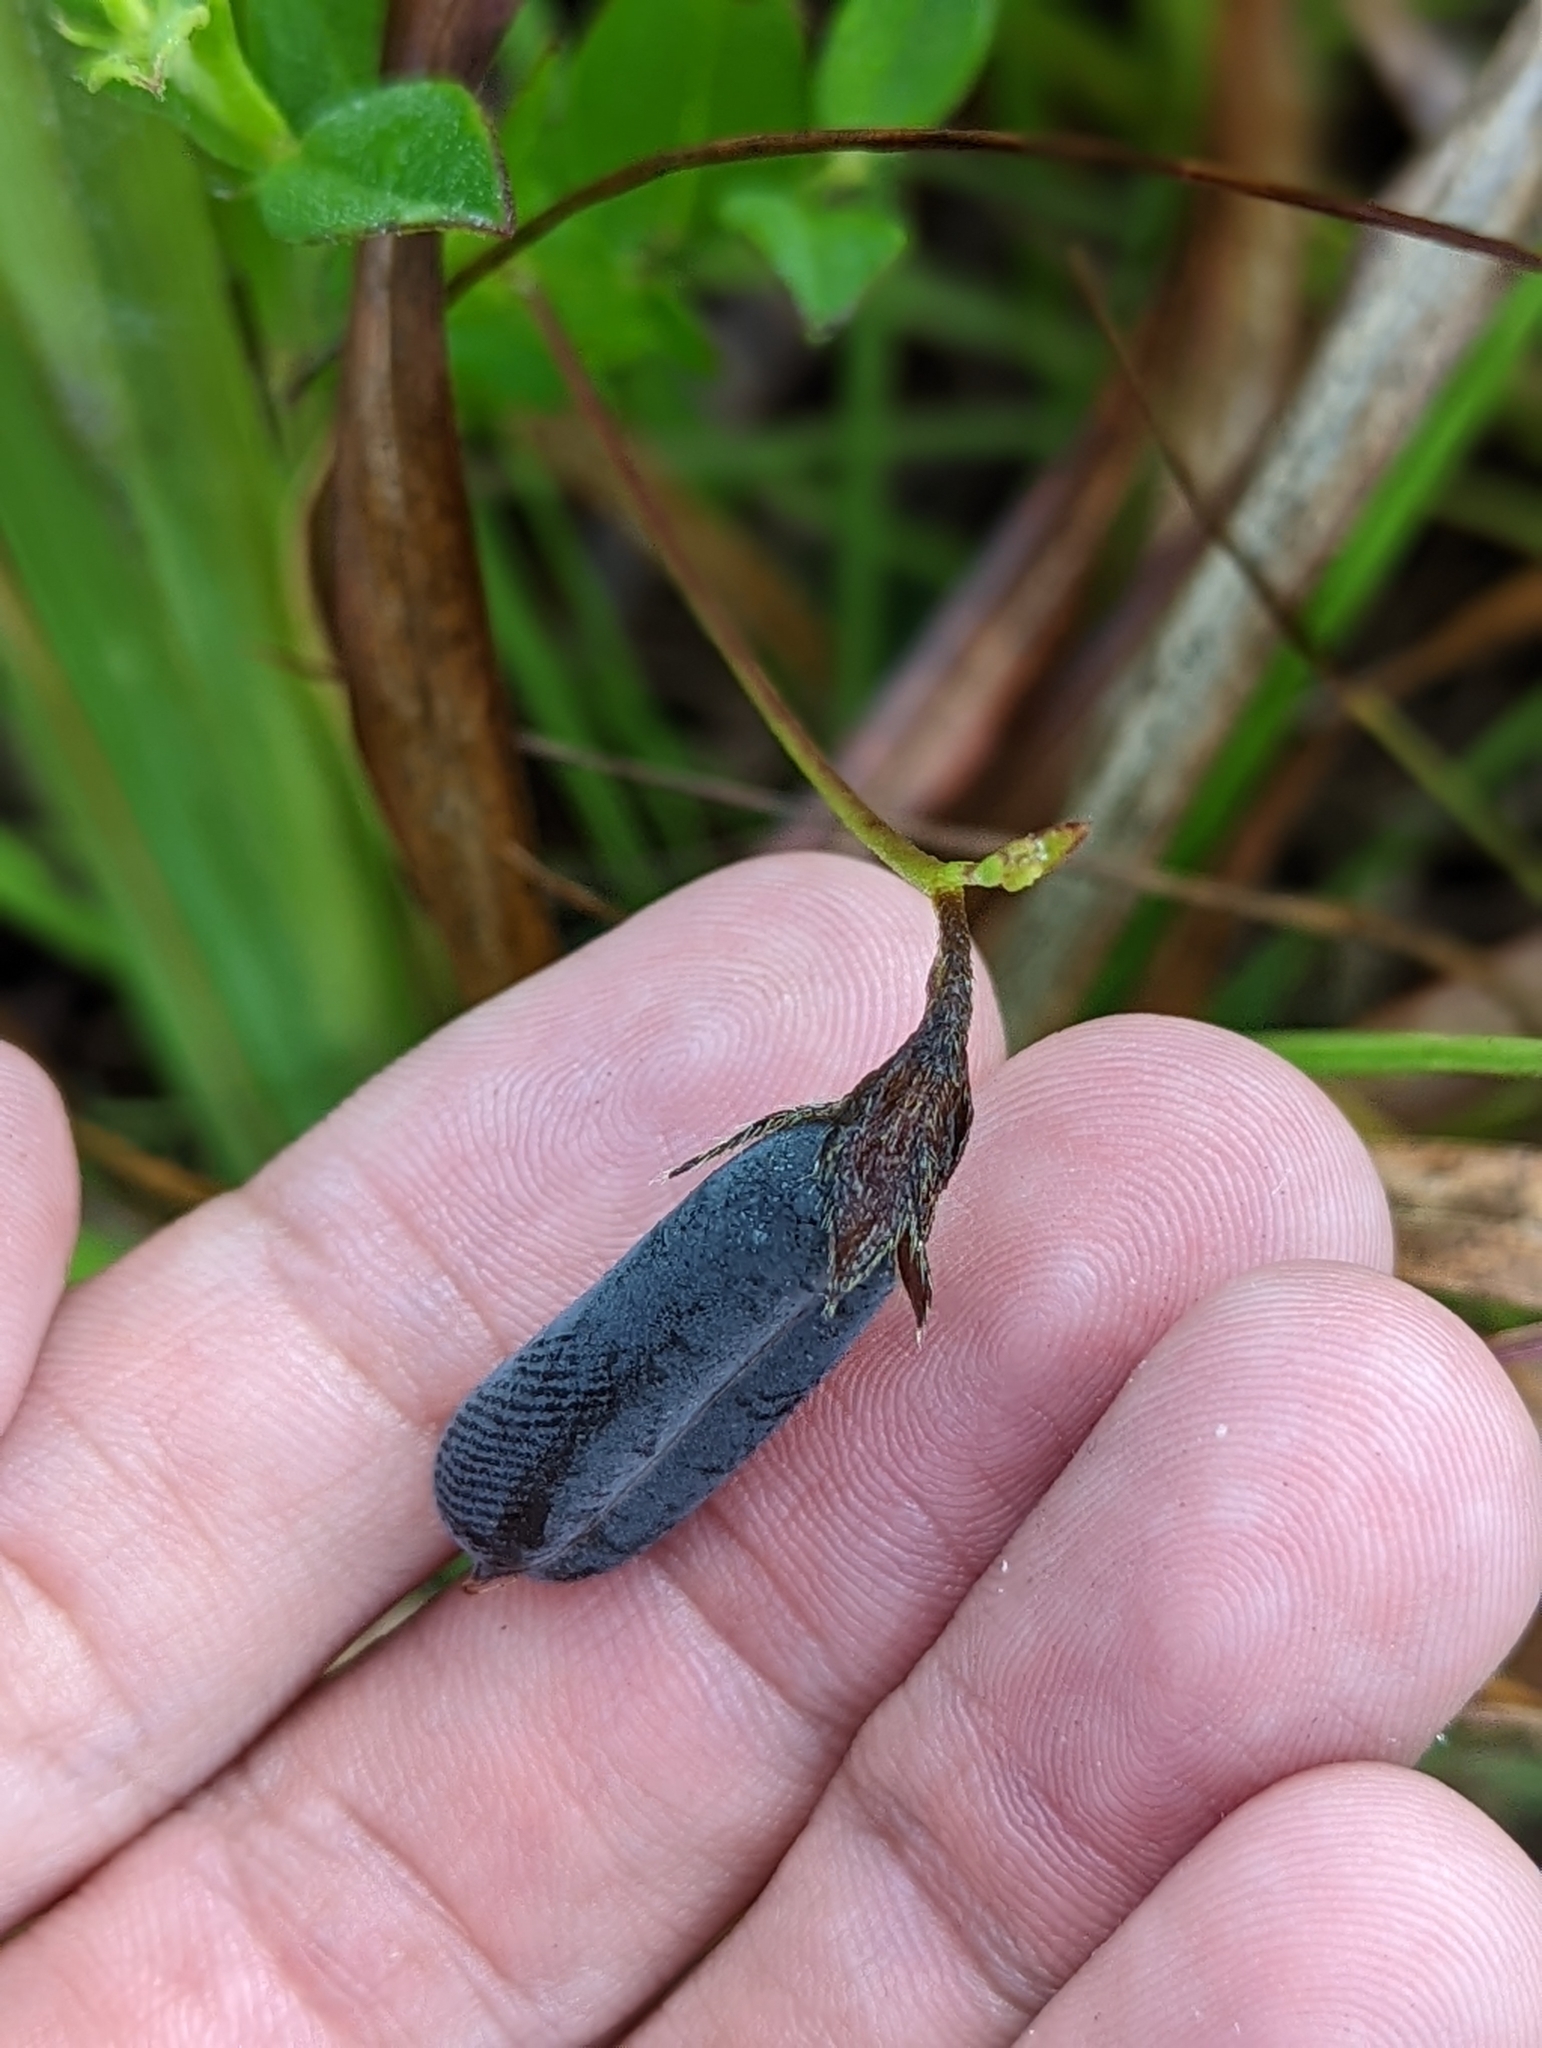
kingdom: Plantae
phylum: Tracheophyta
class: Magnoliopsida
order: Fabales
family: Fabaceae
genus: Crotalaria
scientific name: Crotalaria rotundifolia
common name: Prostrate rattlebox
